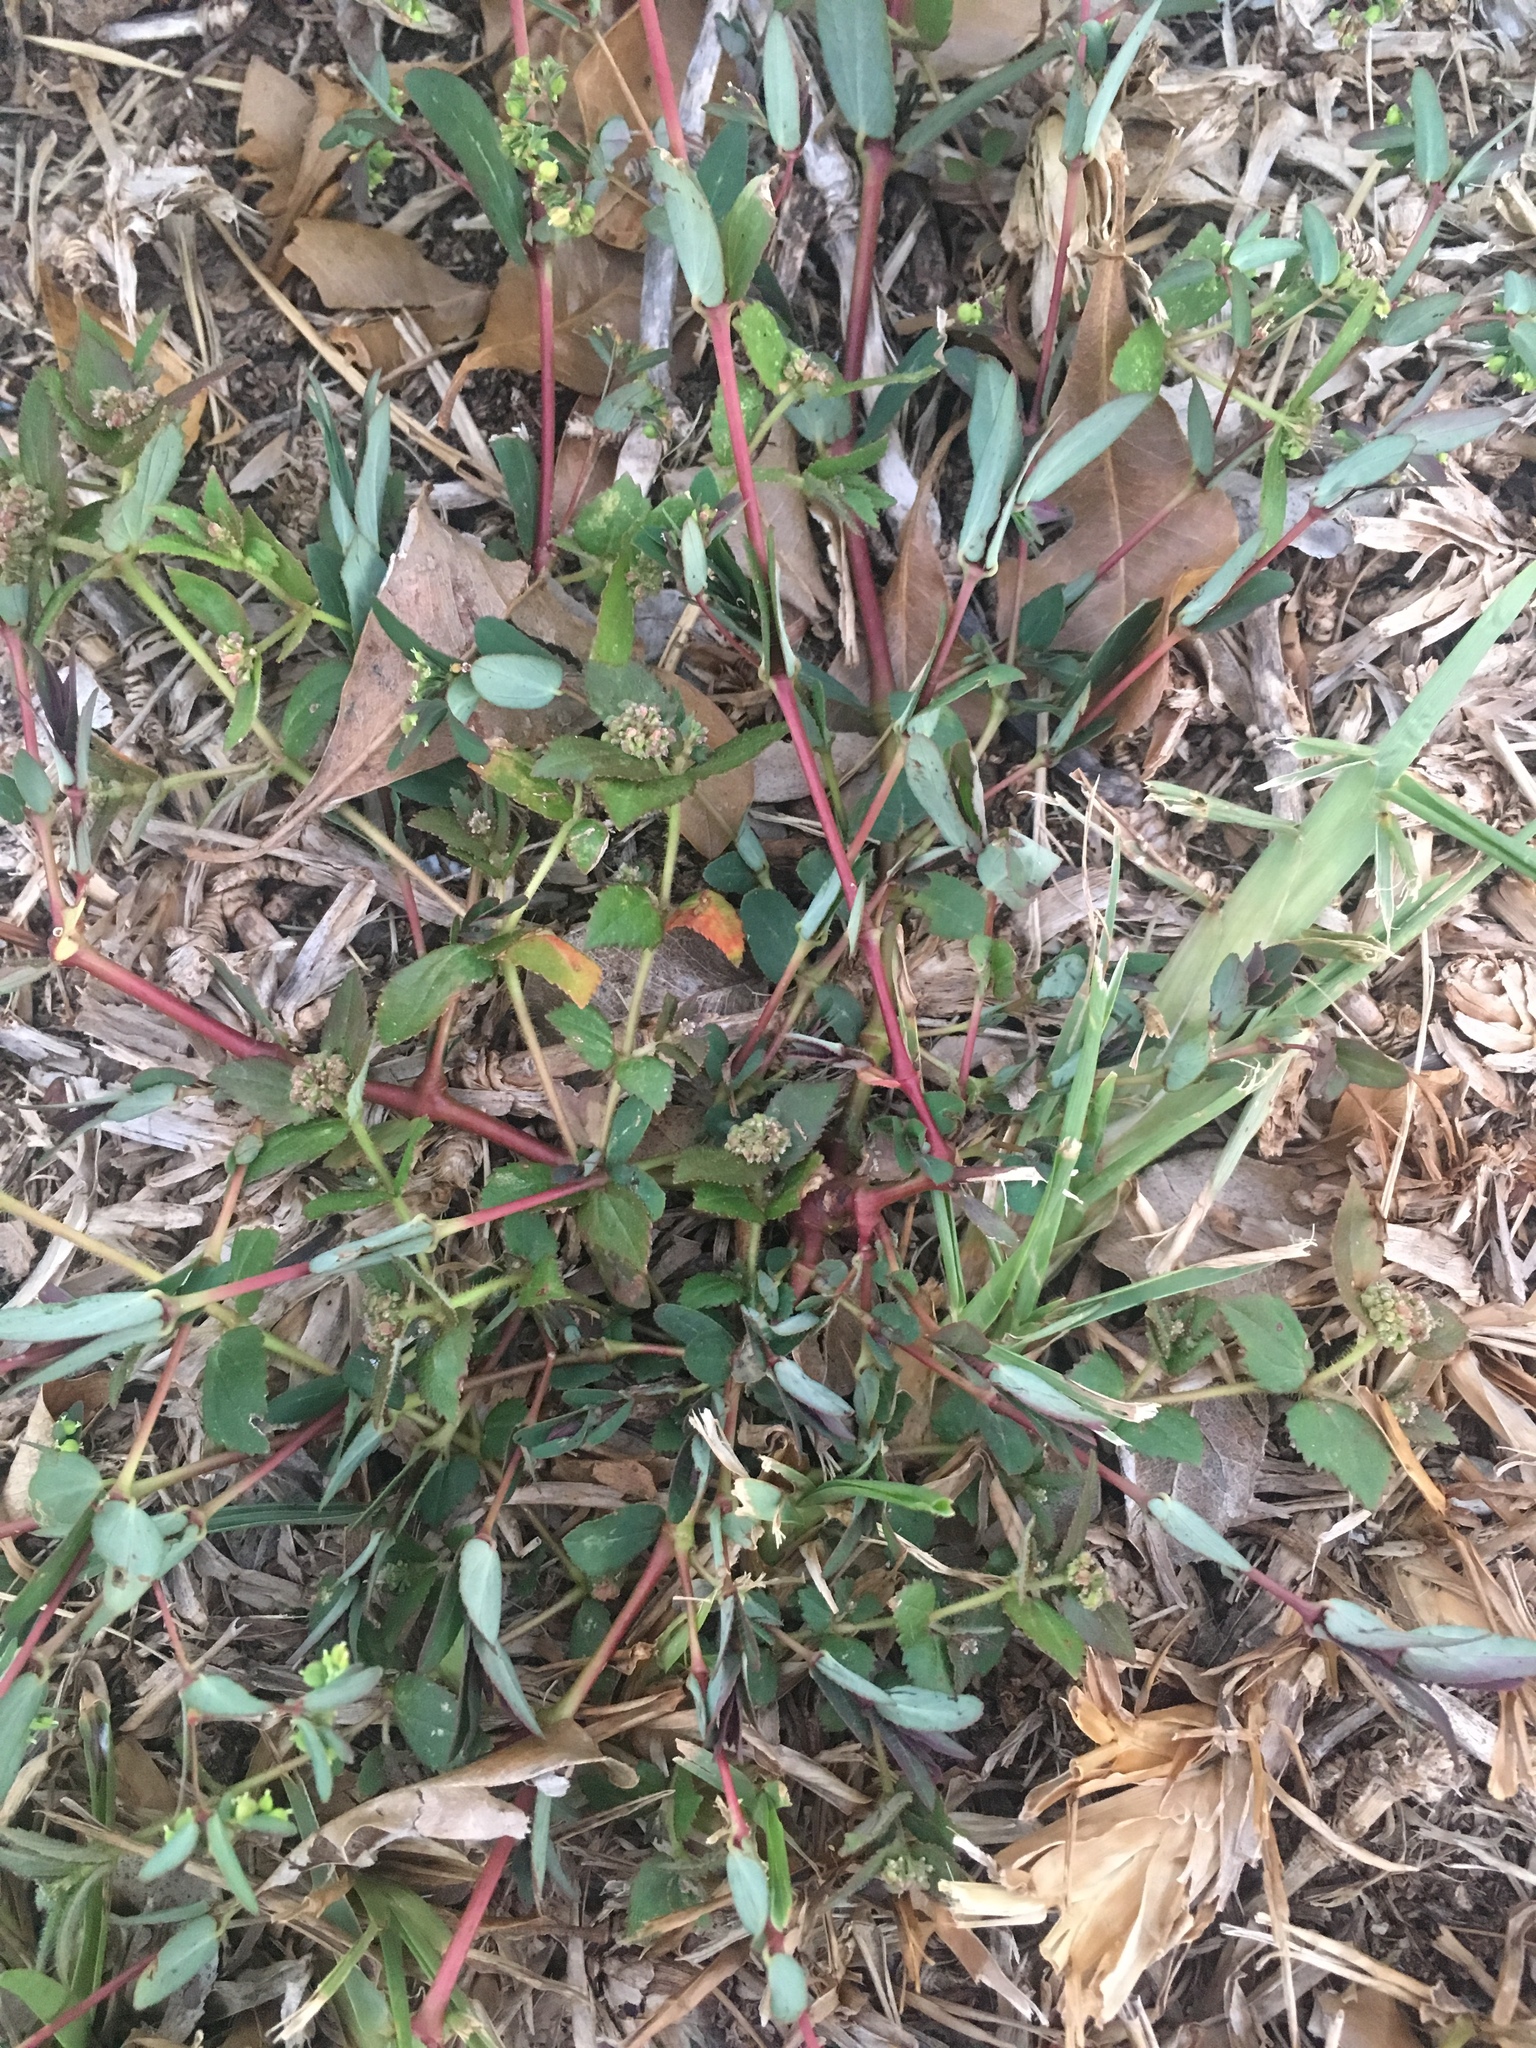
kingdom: Plantae
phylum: Tracheophyta
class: Magnoliopsida
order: Malpighiales
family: Euphorbiaceae
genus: Euphorbia
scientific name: Euphorbia hyssopifolia
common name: Hyssopleaf sandmat
